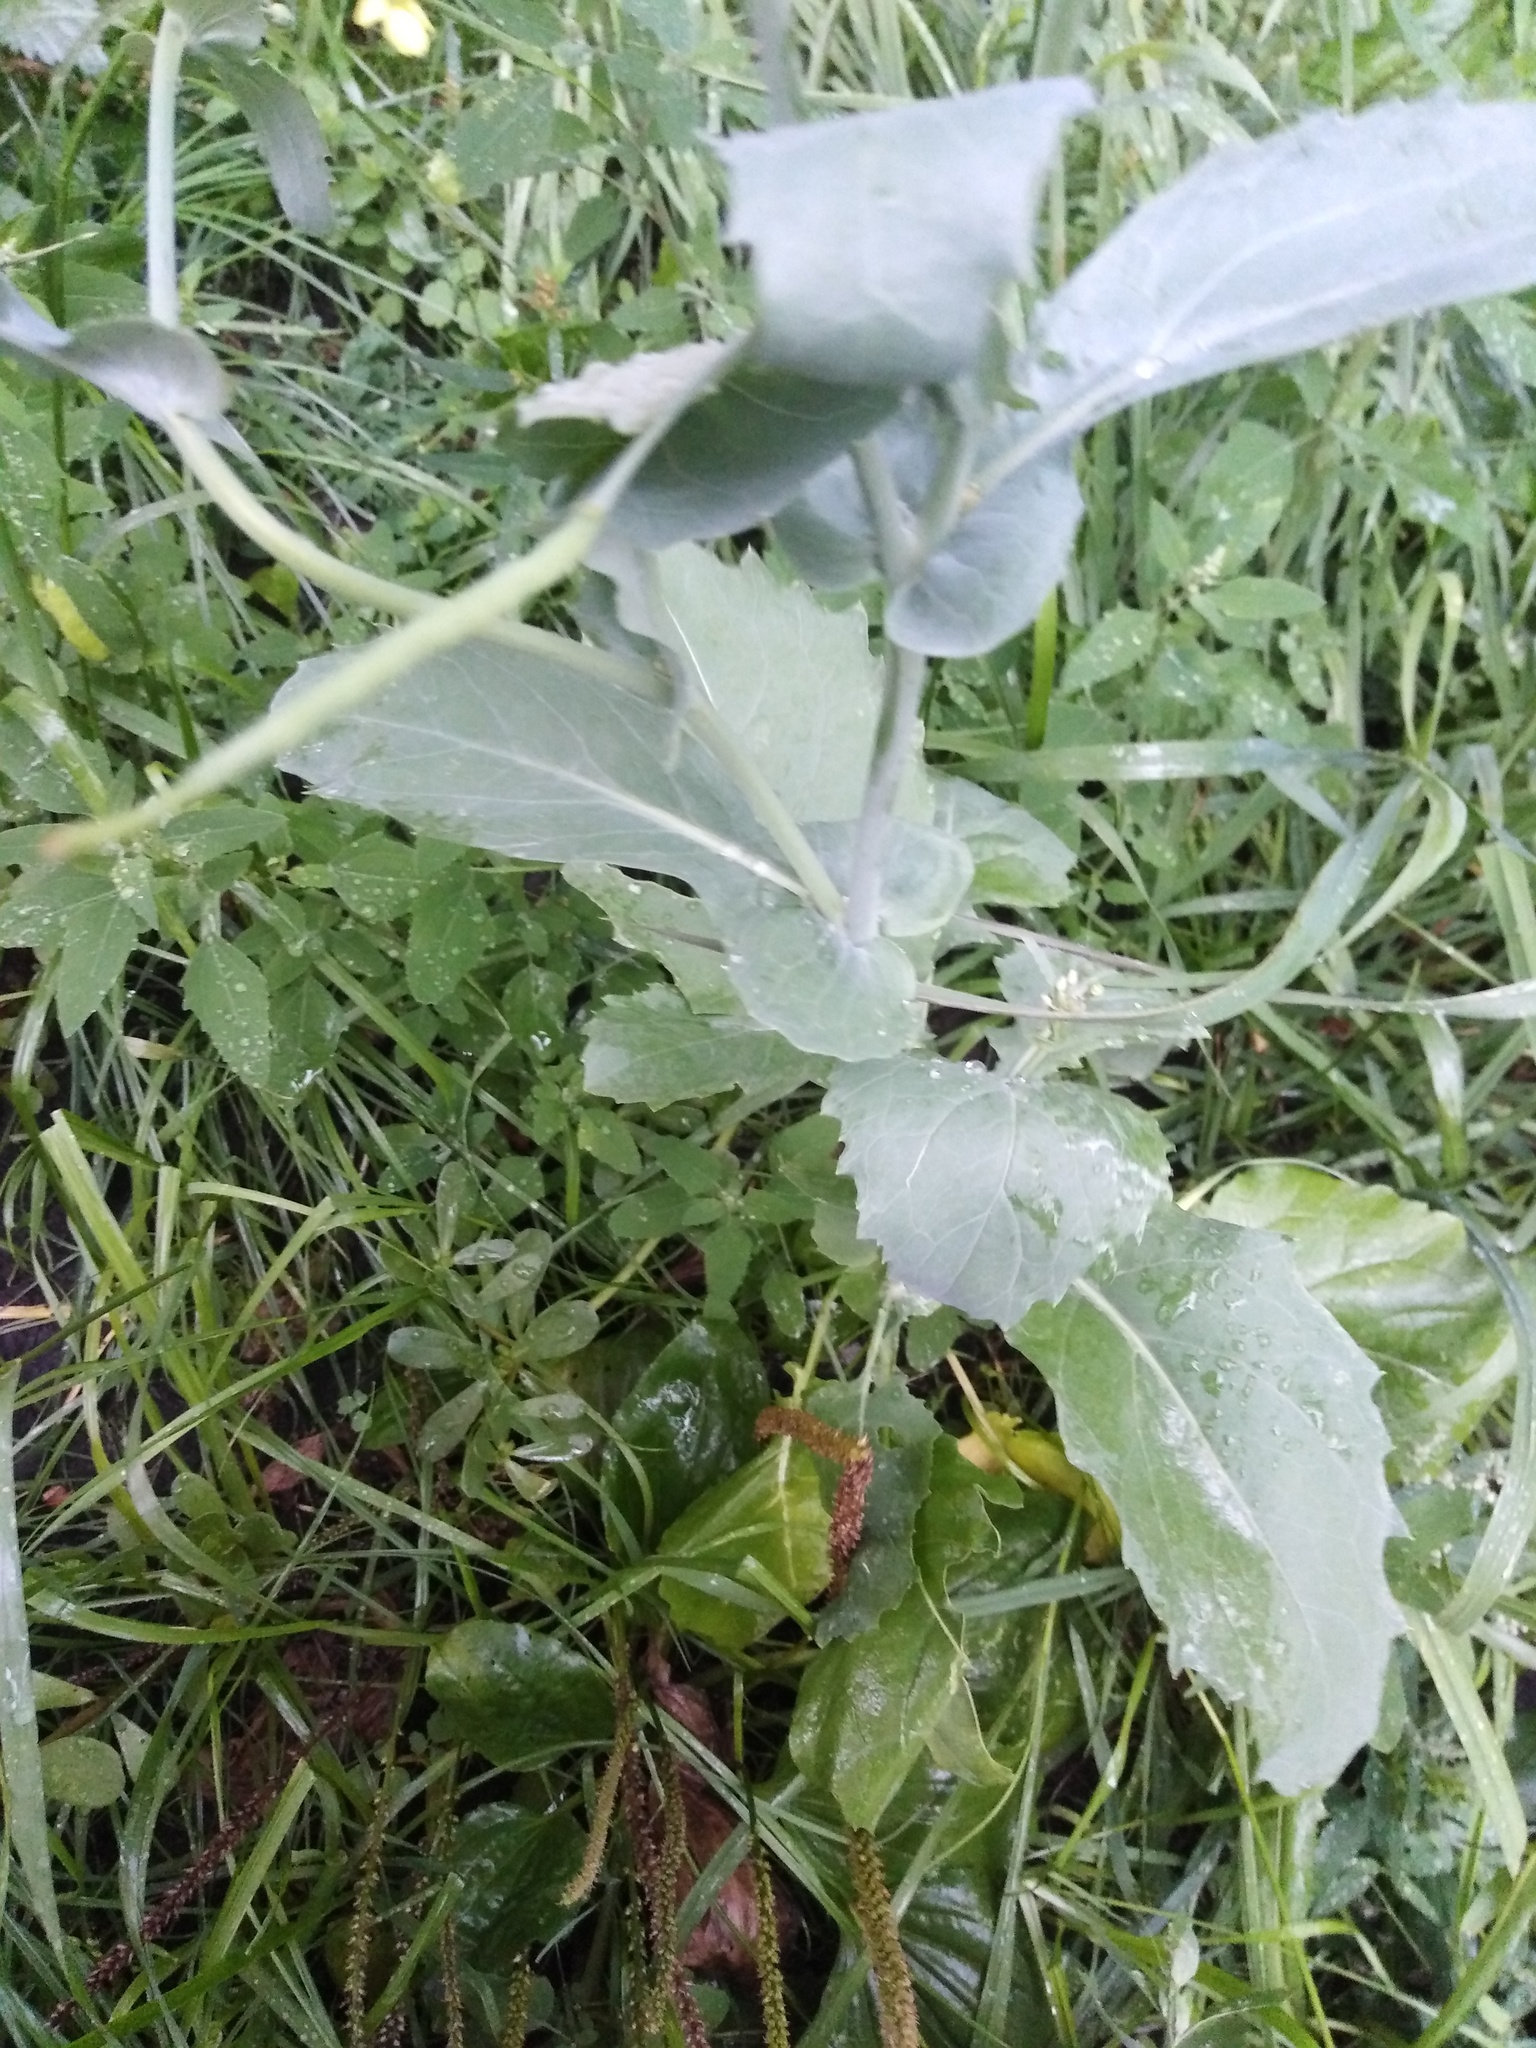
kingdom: Plantae
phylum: Tracheophyta
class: Magnoliopsida
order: Brassicales
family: Brassicaceae
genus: Brassica
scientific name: Brassica rapa
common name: Field mustard
